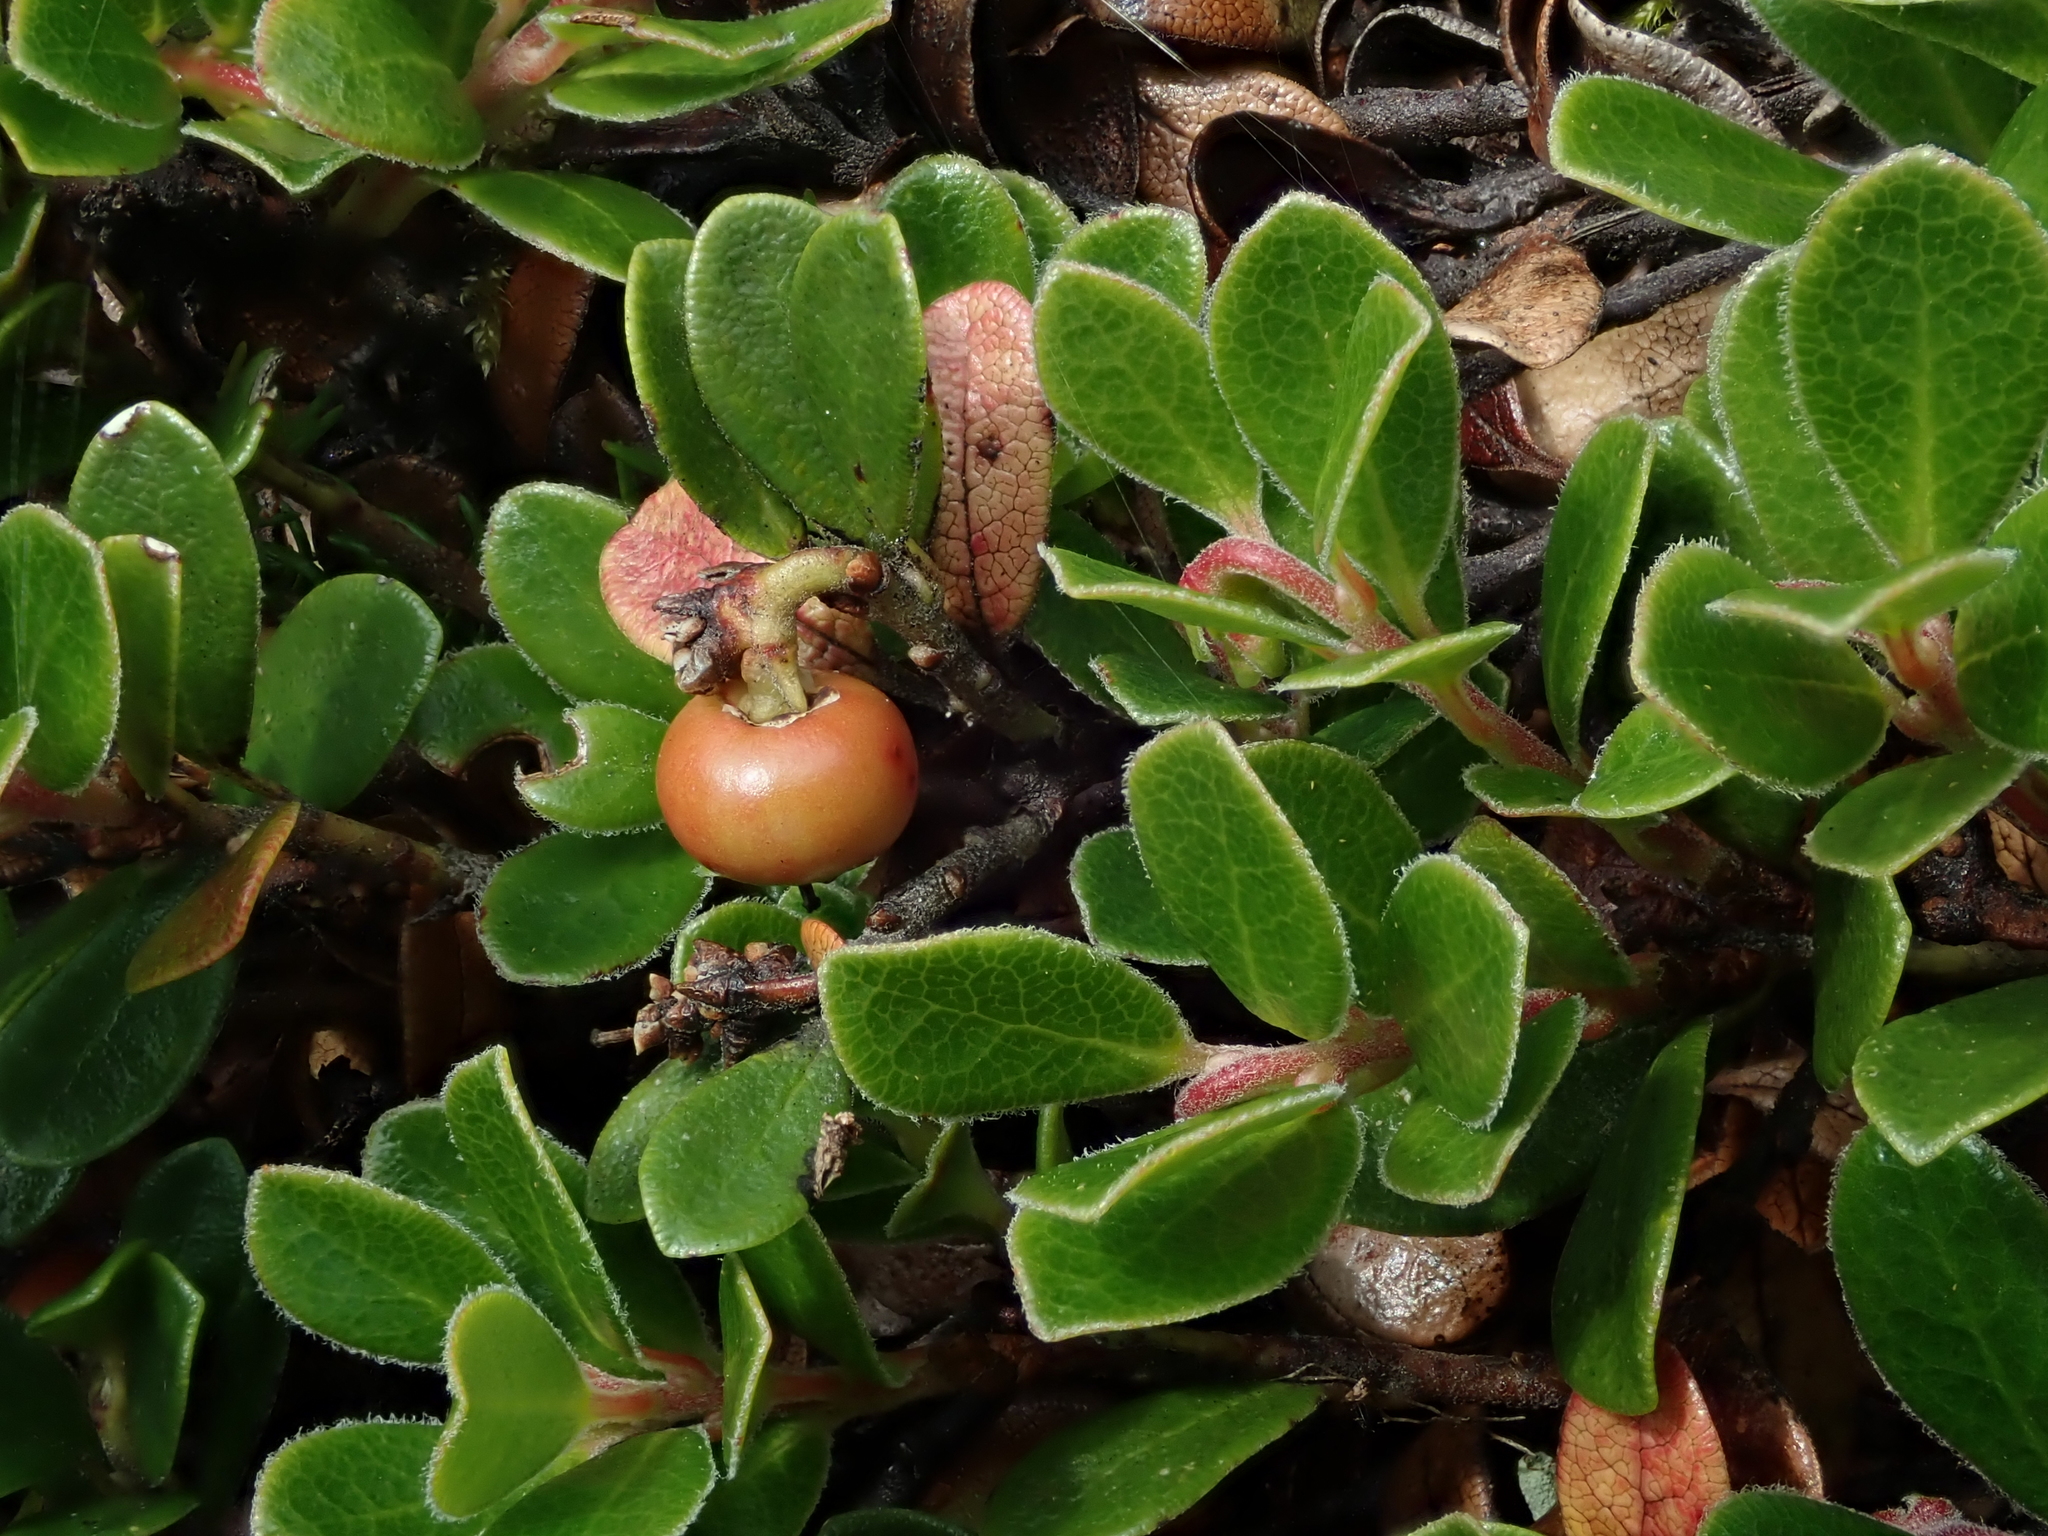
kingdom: Plantae
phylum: Tracheophyta
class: Magnoliopsida
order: Ericales
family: Ericaceae
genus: Arctostaphylos
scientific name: Arctostaphylos uva-ursi
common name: Bearberry
